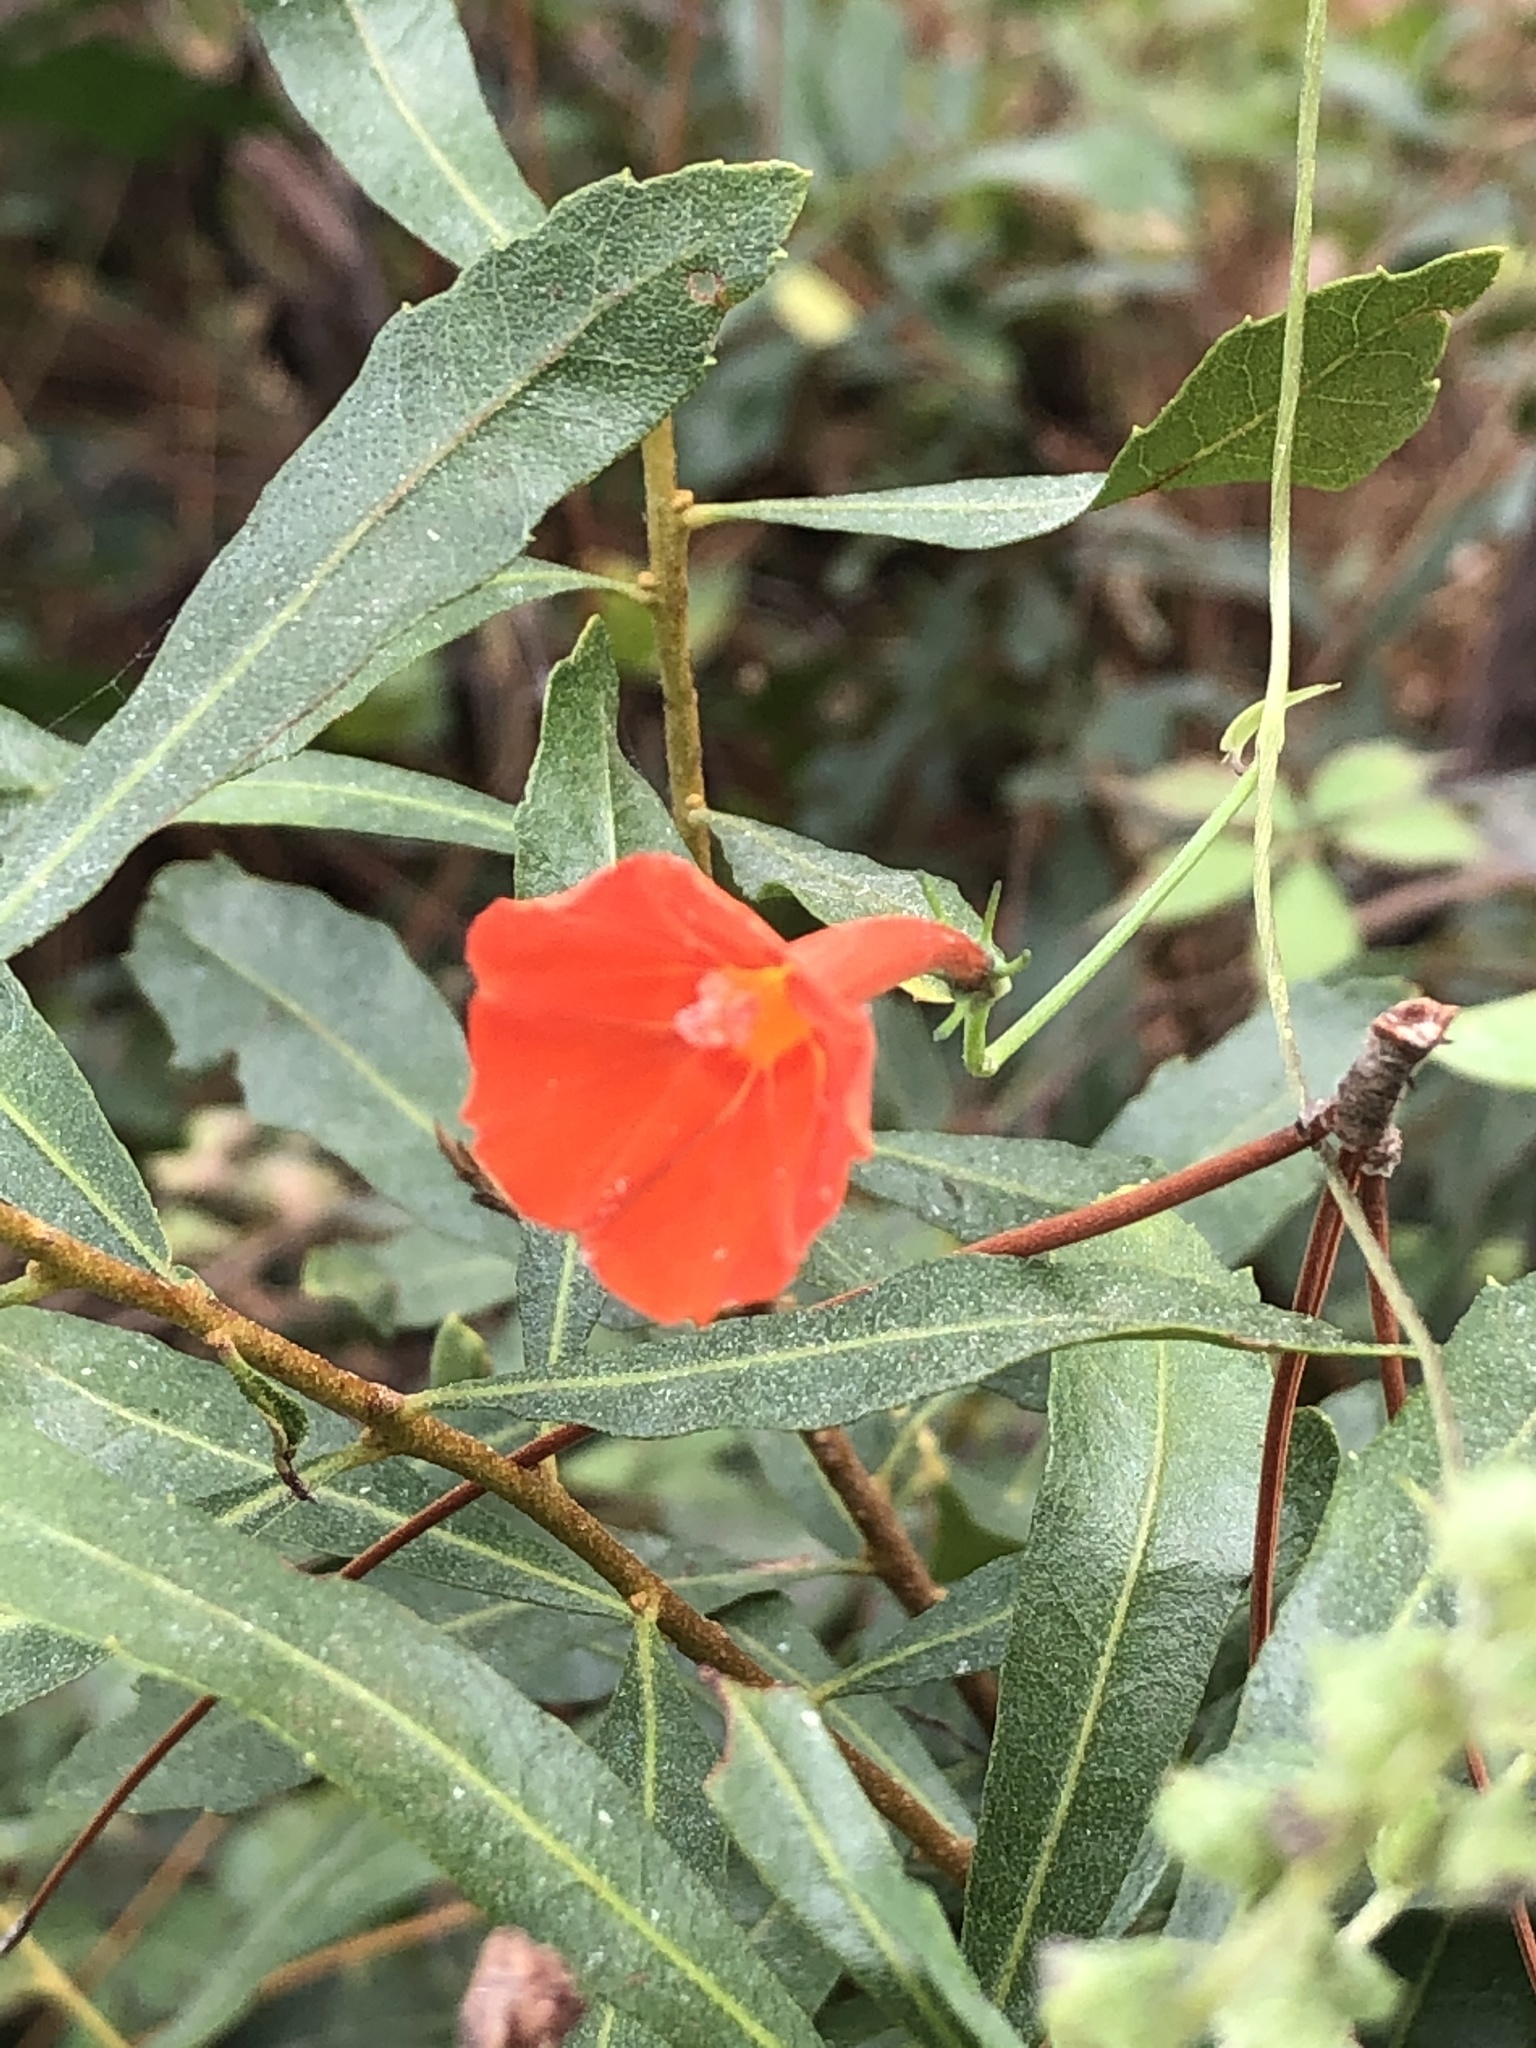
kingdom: Plantae
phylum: Tracheophyta
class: Magnoliopsida
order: Solanales
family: Convolvulaceae
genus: Ipomoea
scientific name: Ipomoea hederifolia
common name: Ivy-leaf morning-glory
